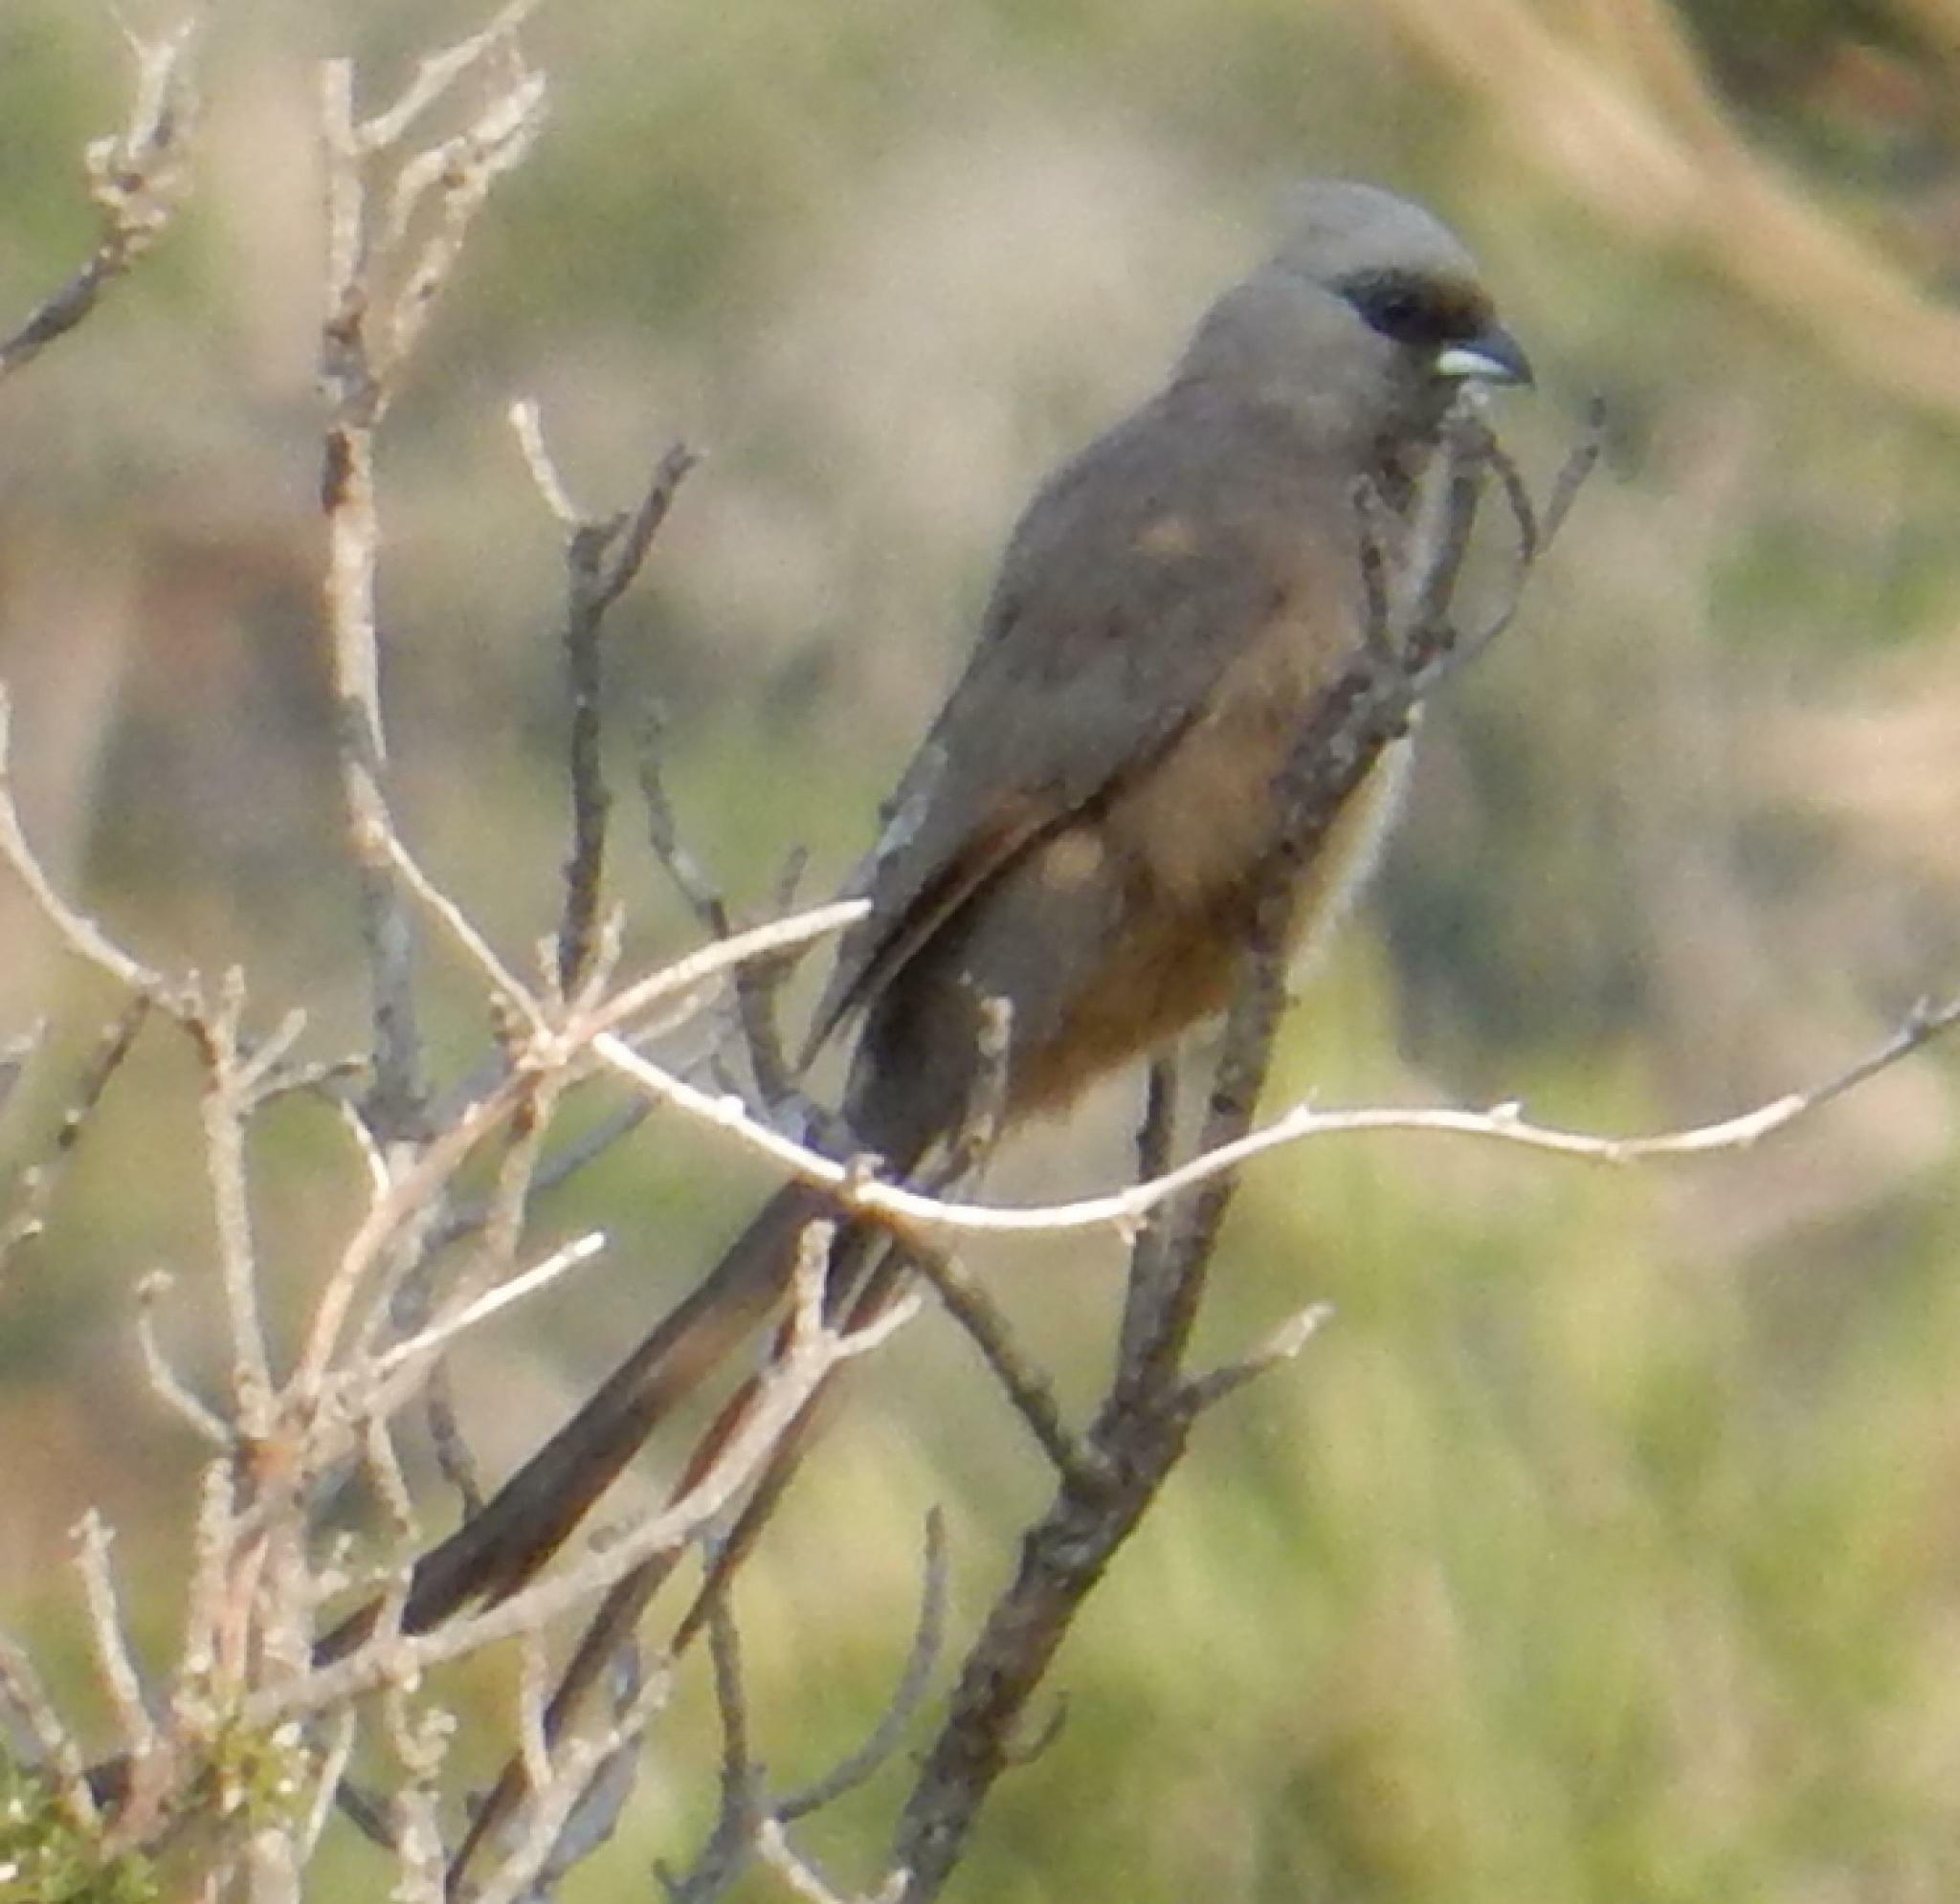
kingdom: Animalia
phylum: Chordata
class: Aves
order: Coliiformes
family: Coliidae
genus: Colius
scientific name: Colius striatus
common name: Speckled mousebird
